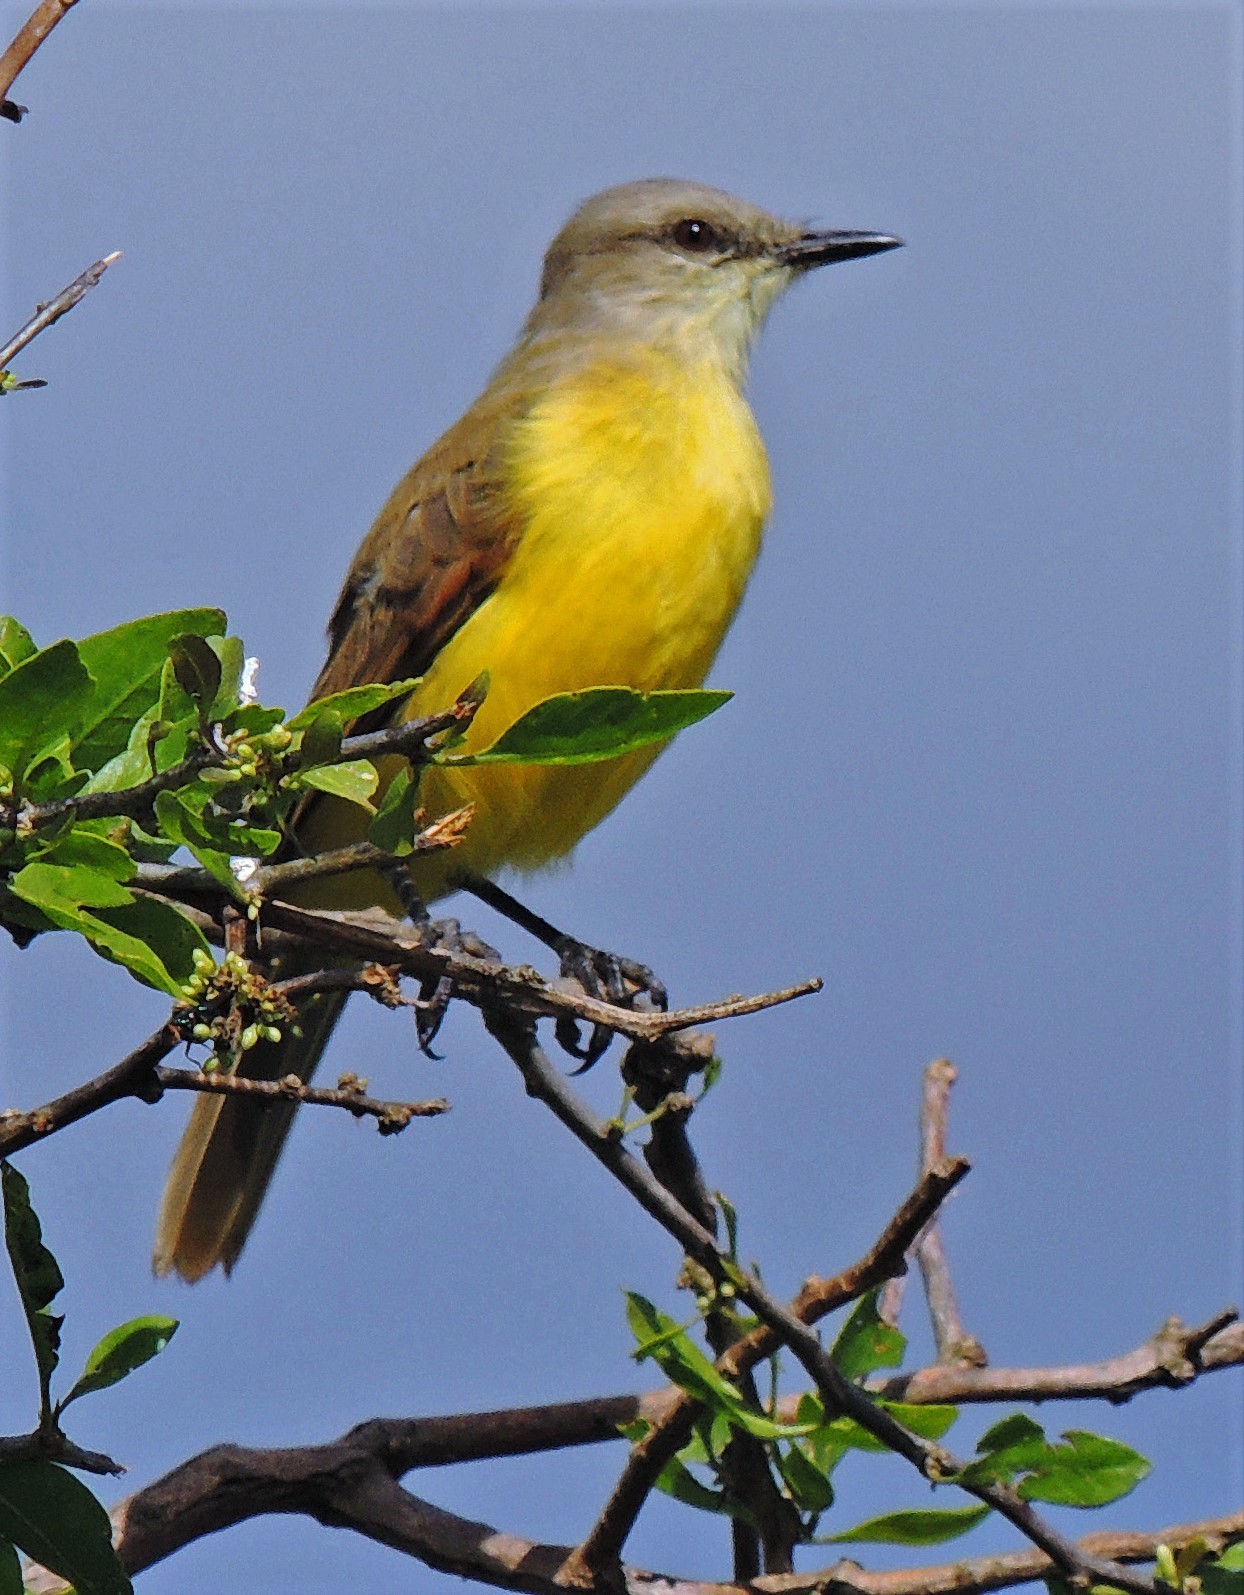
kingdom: Animalia
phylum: Chordata
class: Aves
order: Passeriformes
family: Tyrannidae
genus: Machetornis
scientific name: Machetornis rixosa
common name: Cattle tyrant
